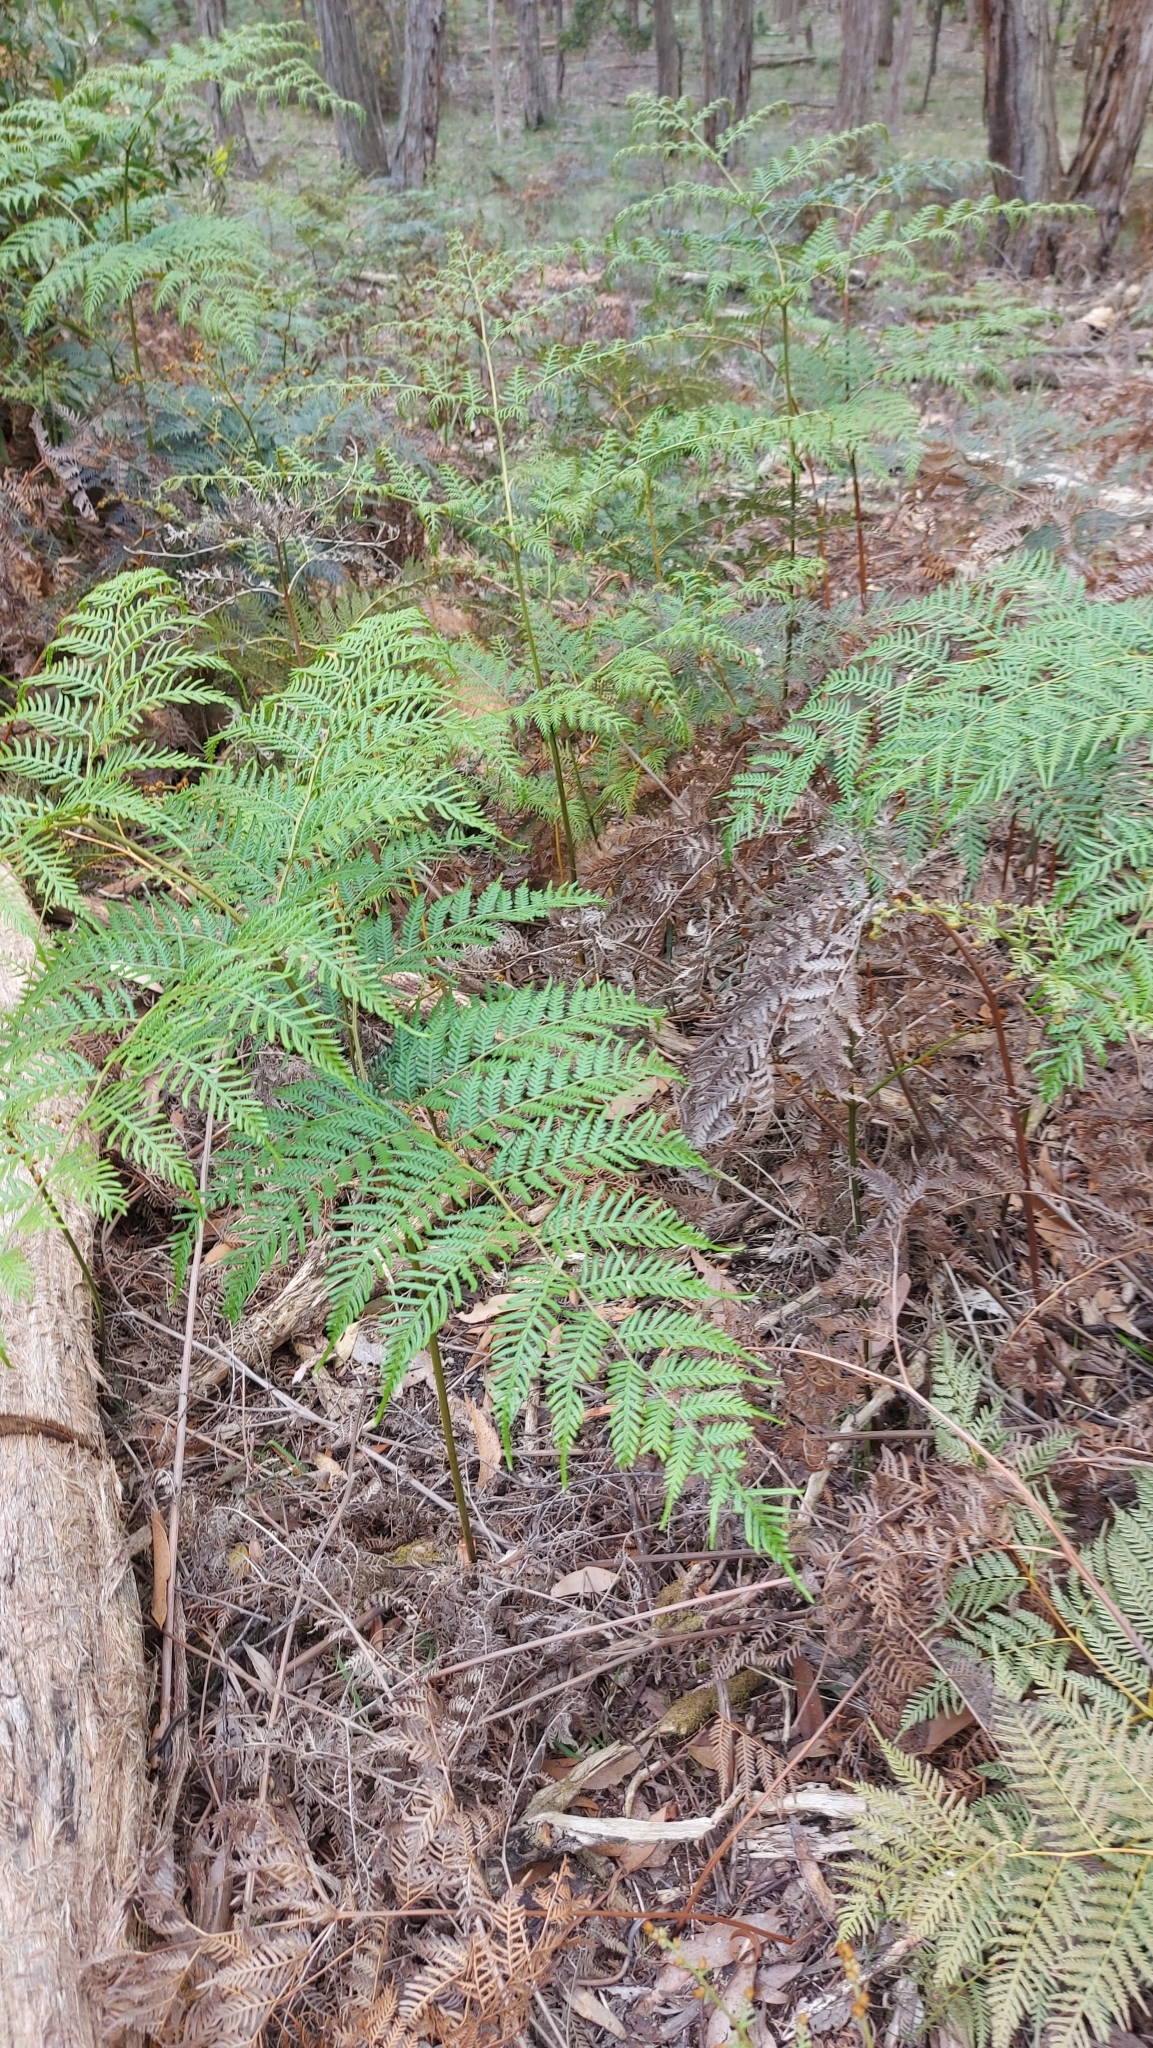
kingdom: Plantae
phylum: Tracheophyta
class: Polypodiopsida
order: Polypodiales
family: Dennstaedtiaceae
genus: Pteridium
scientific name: Pteridium esculentum
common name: Bracken fern
